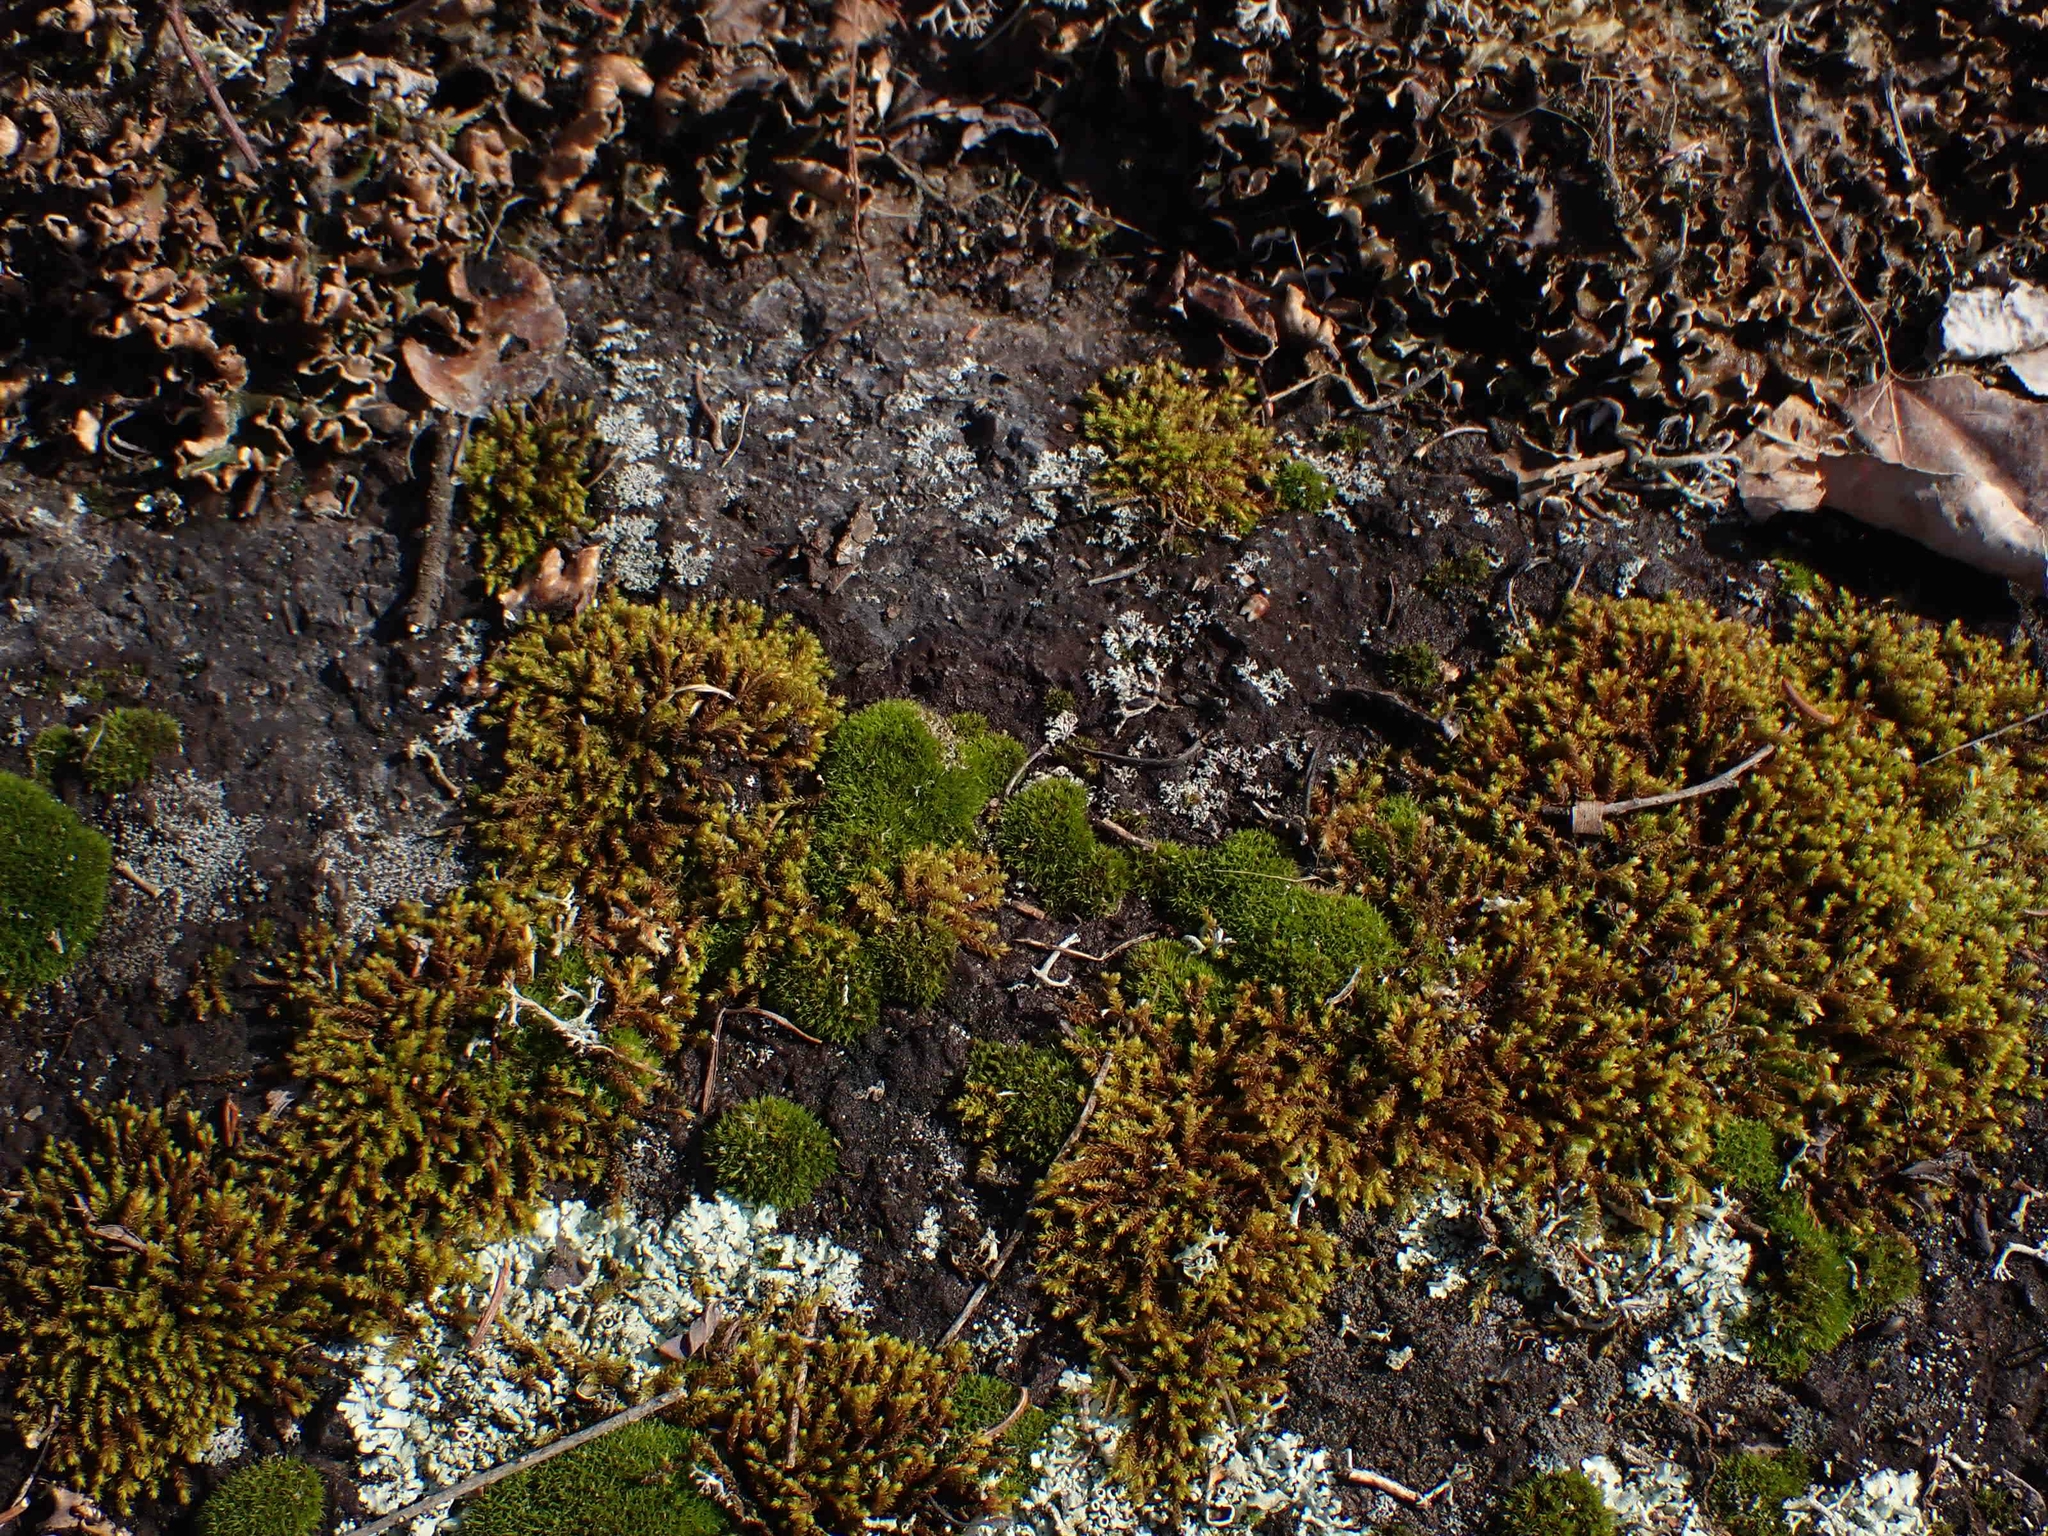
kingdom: Plantae
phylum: Bryophyta
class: Bryopsida
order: Dicranales
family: Ditrichaceae
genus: Ceratodon
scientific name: Ceratodon purpureus
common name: Redshank
